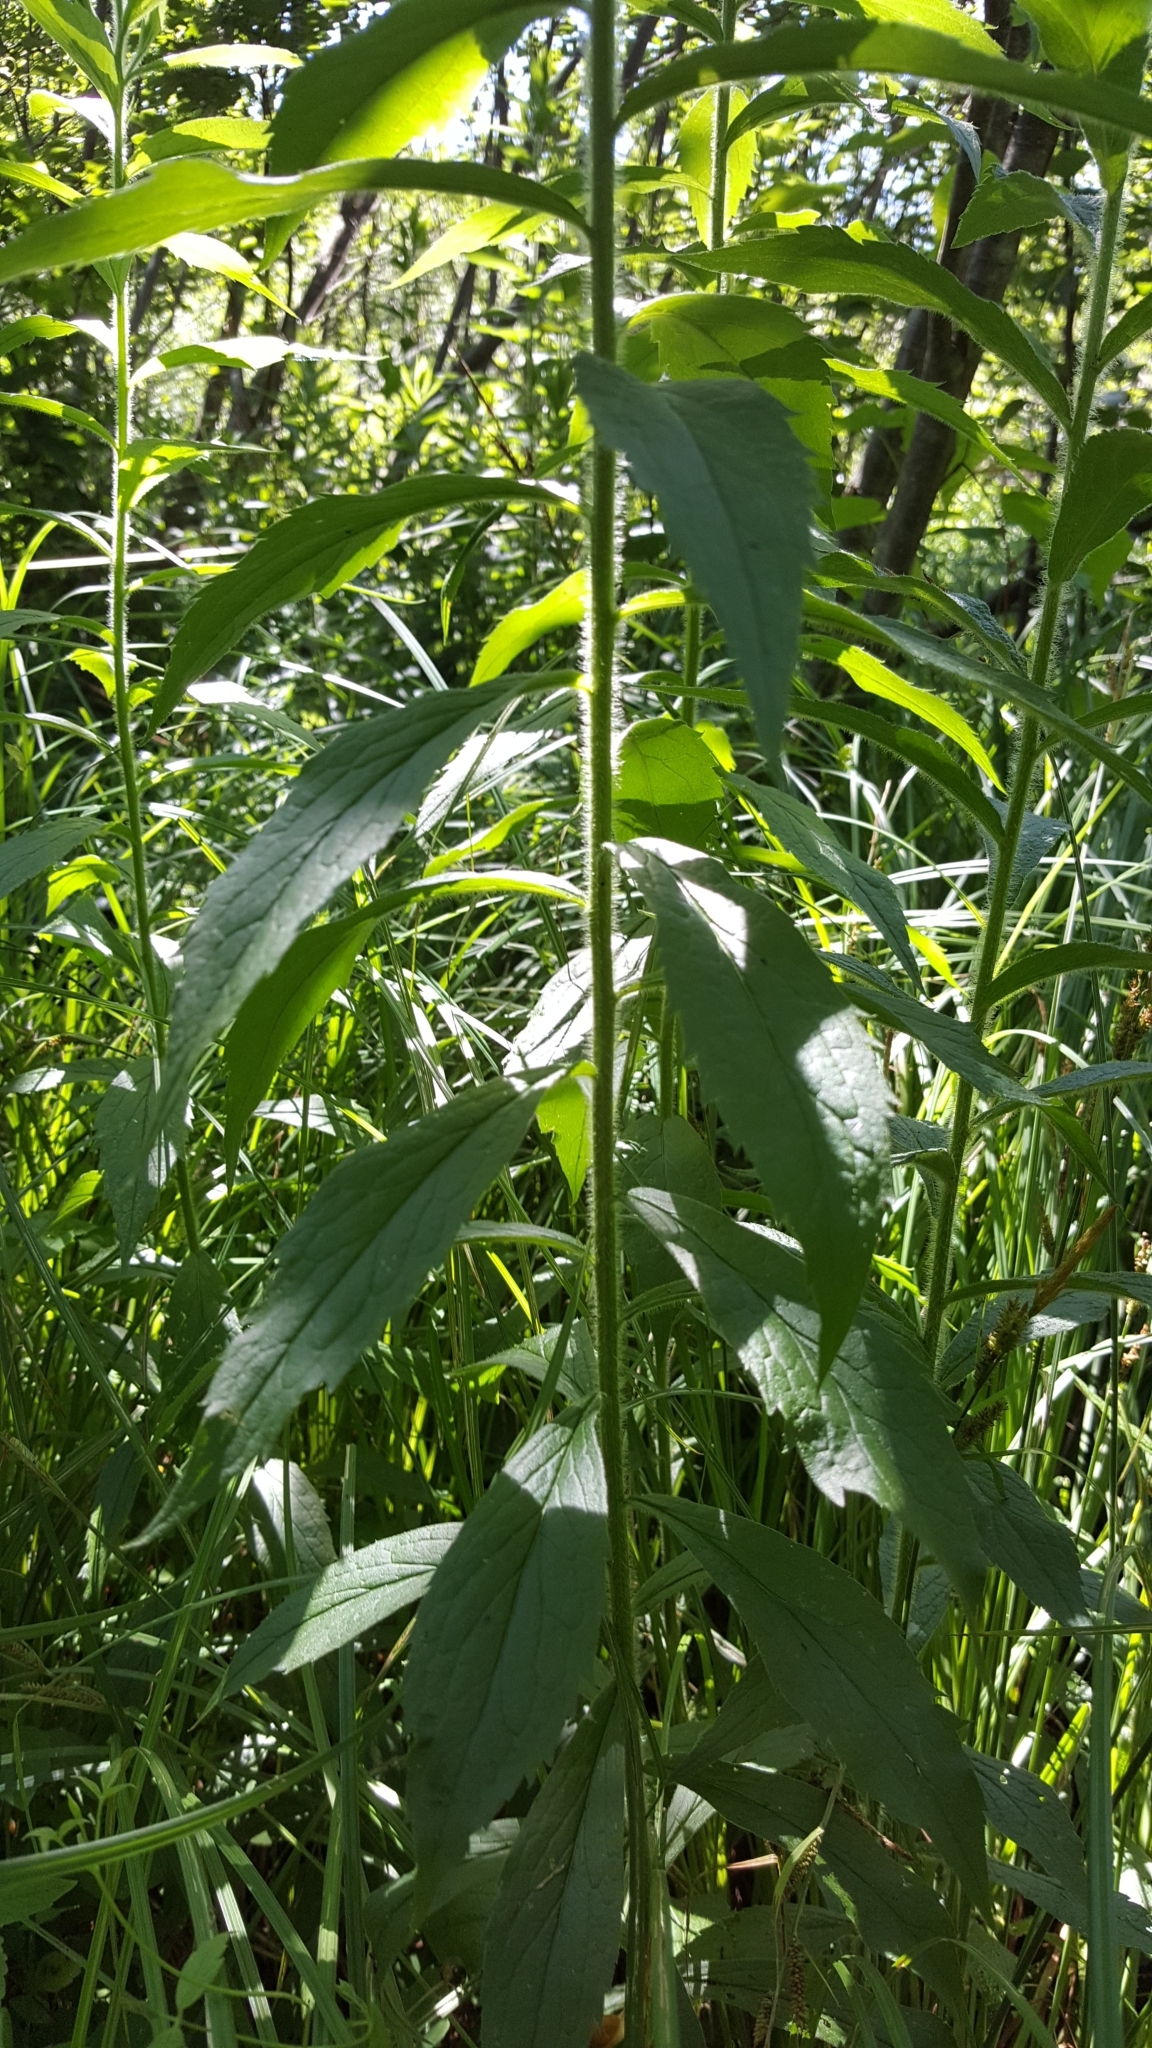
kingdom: Plantae
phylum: Tracheophyta
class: Magnoliopsida
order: Asterales
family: Asteraceae
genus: Solidago
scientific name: Solidago rugosa
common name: Rough-stemmed goldenrod
